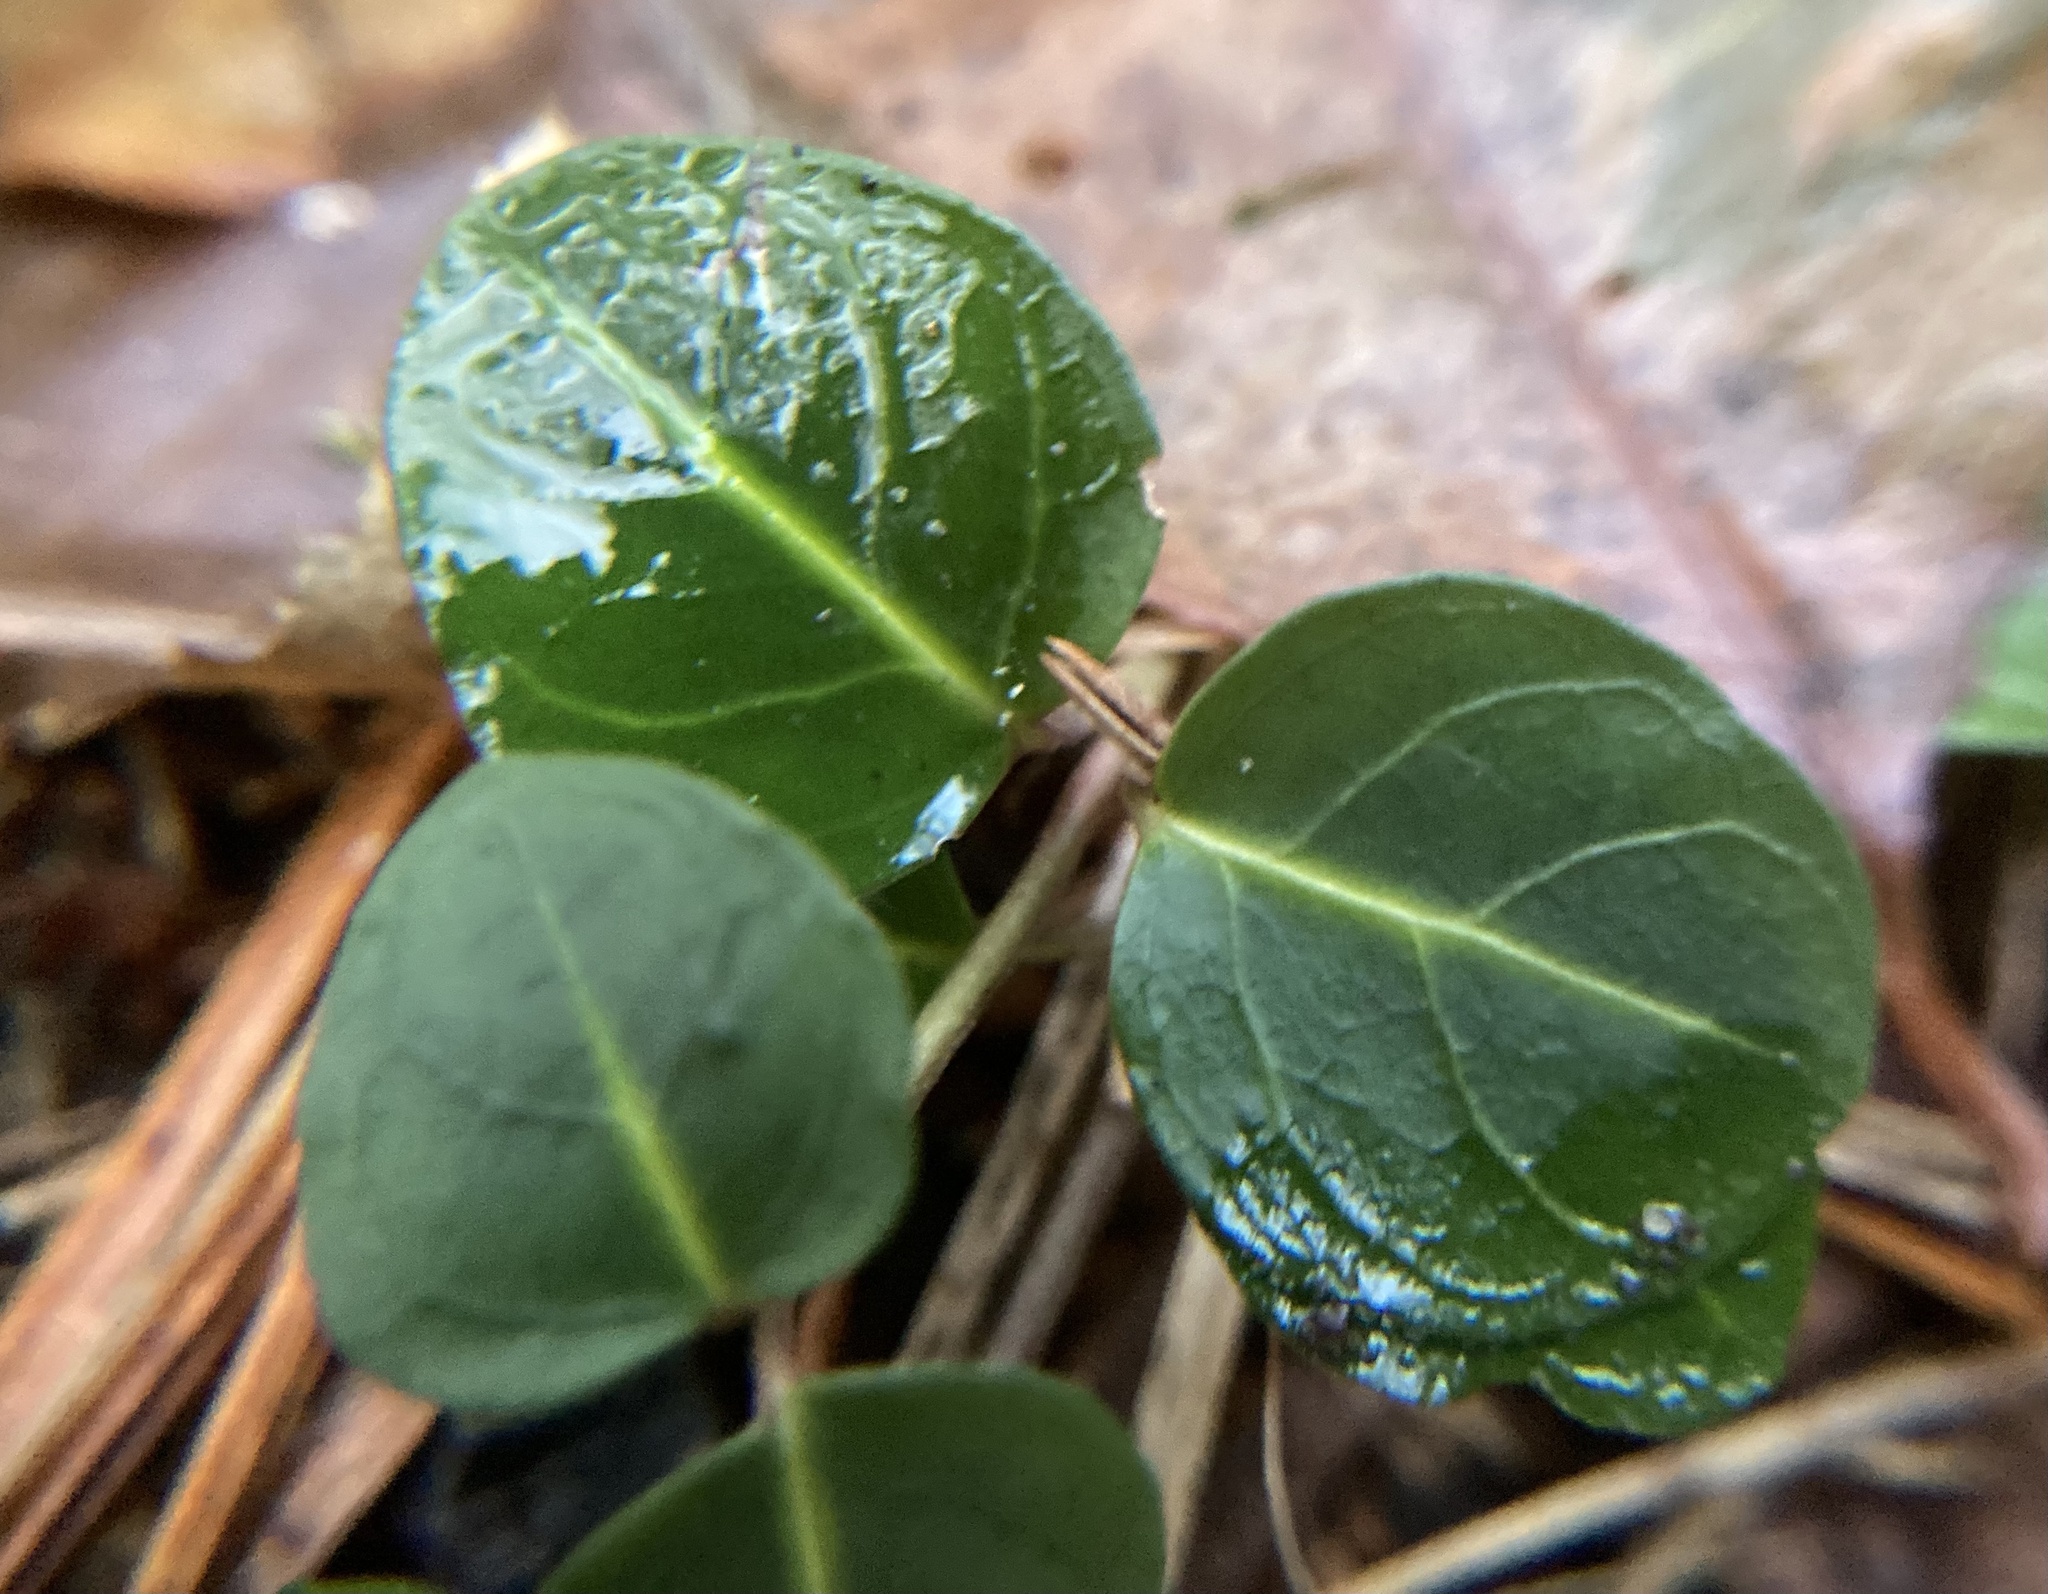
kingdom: Plantae
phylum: Tracheophyta
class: Magnoliopsida
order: Gentianales
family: Rubiaceae
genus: Mitchella
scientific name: Mitchella repens
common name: Partridge-berry
